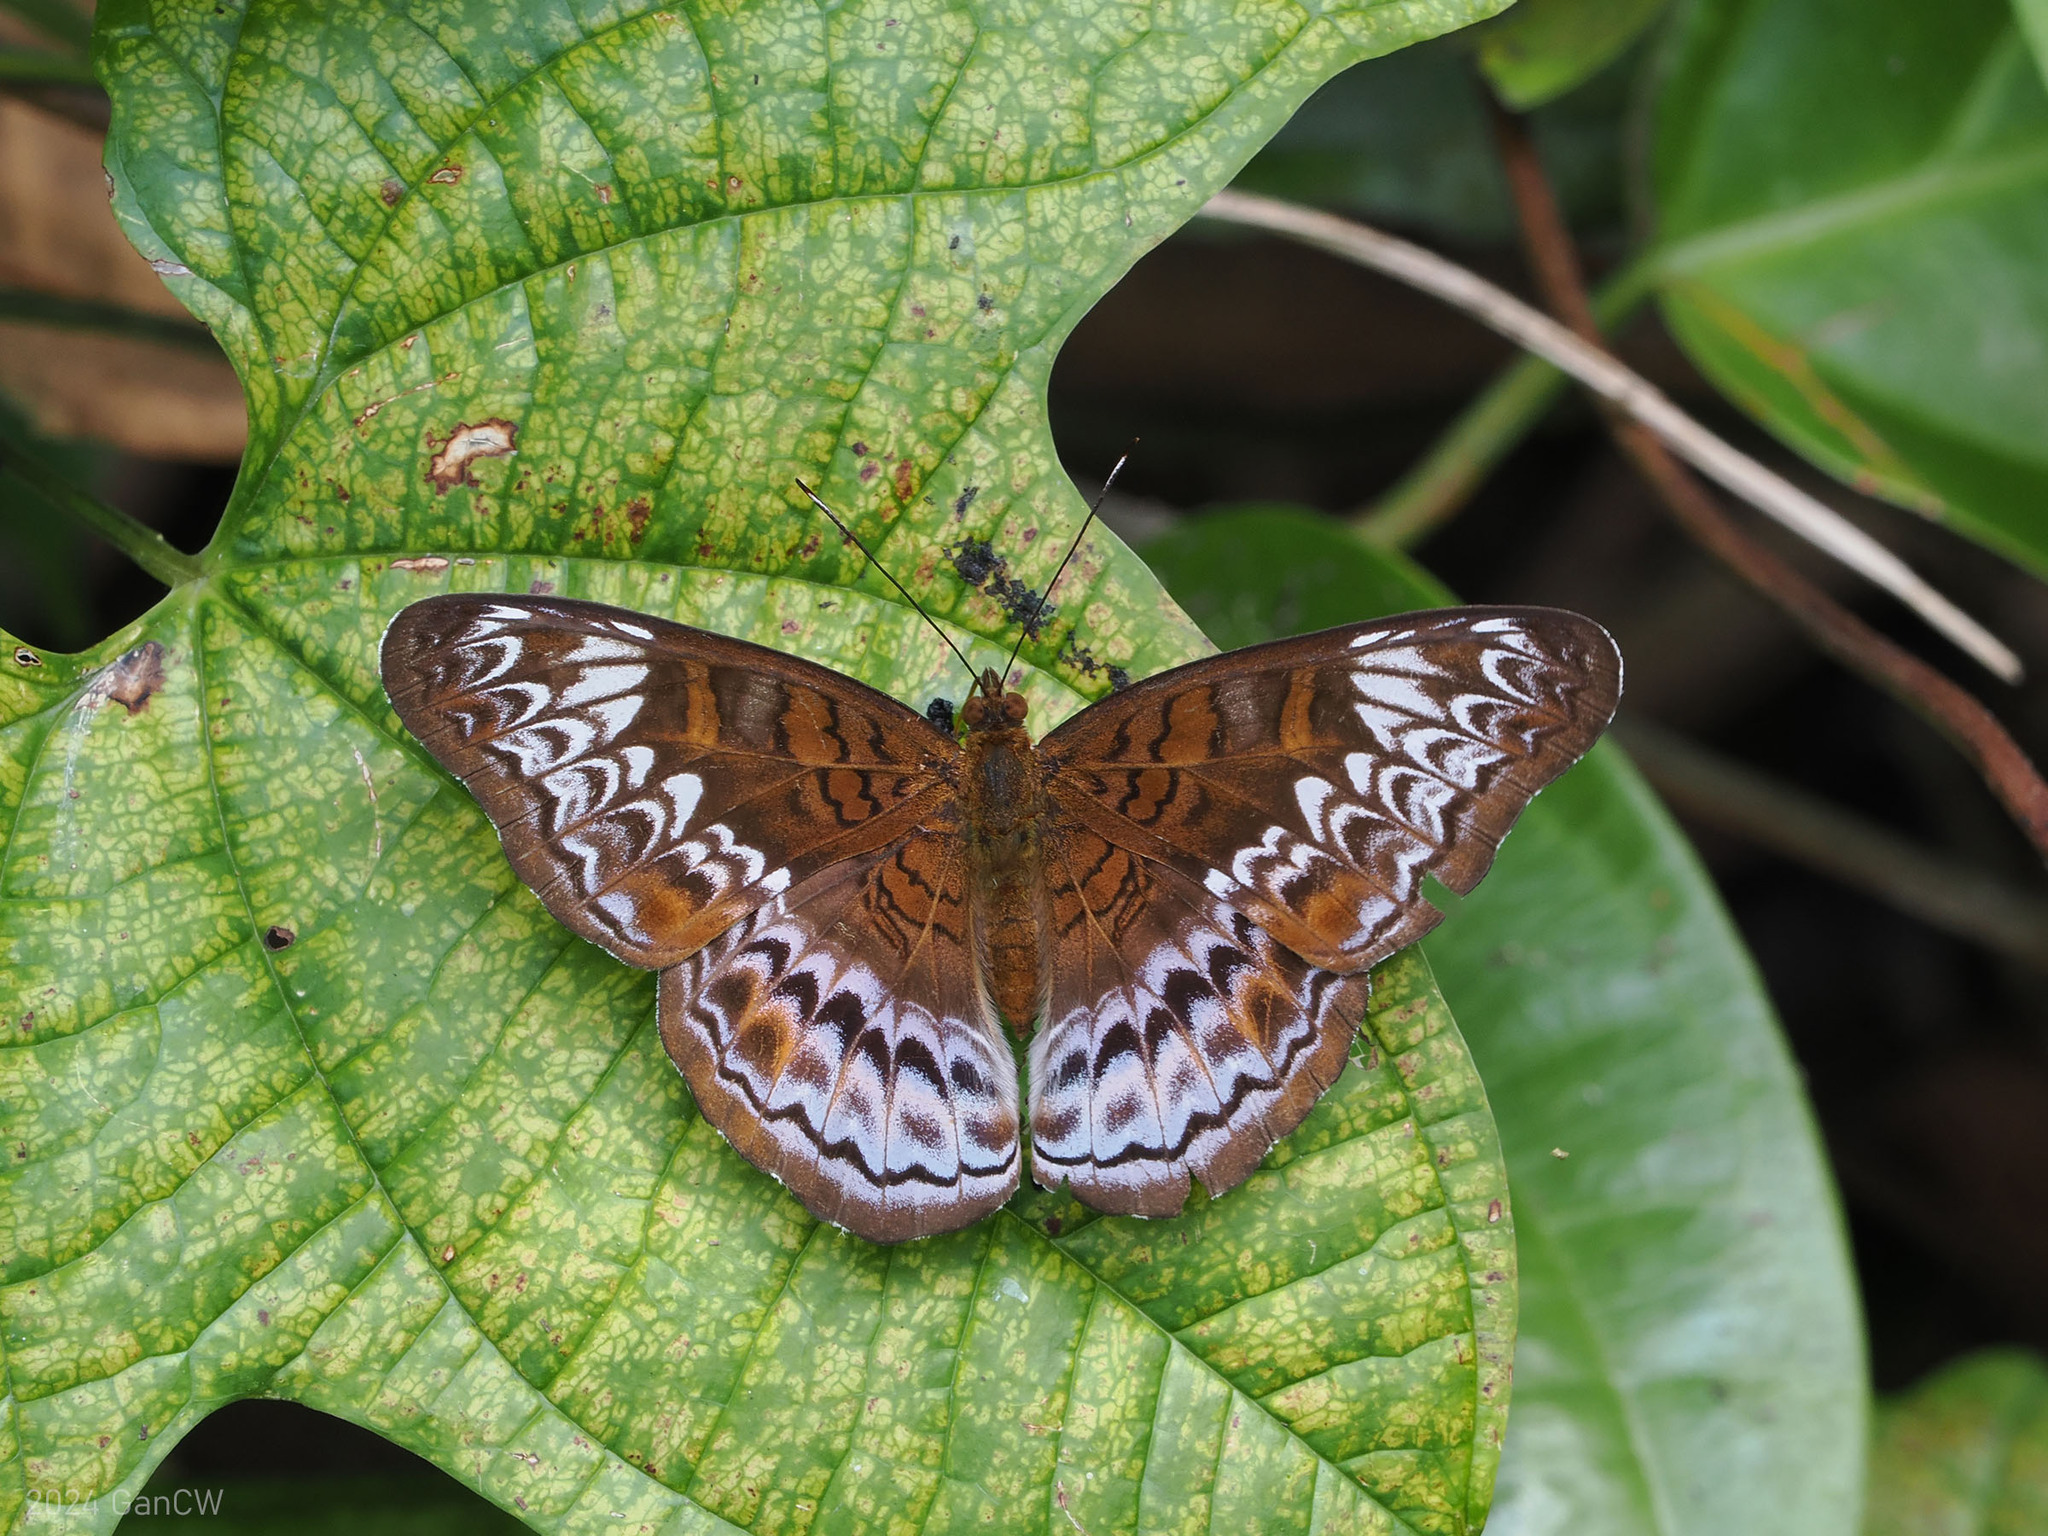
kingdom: Animalia
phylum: Arthropoda
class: Insecta
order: Lepidoptera
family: Nymphalidae
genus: Lebadea
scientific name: Lebadea martha
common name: Knight
